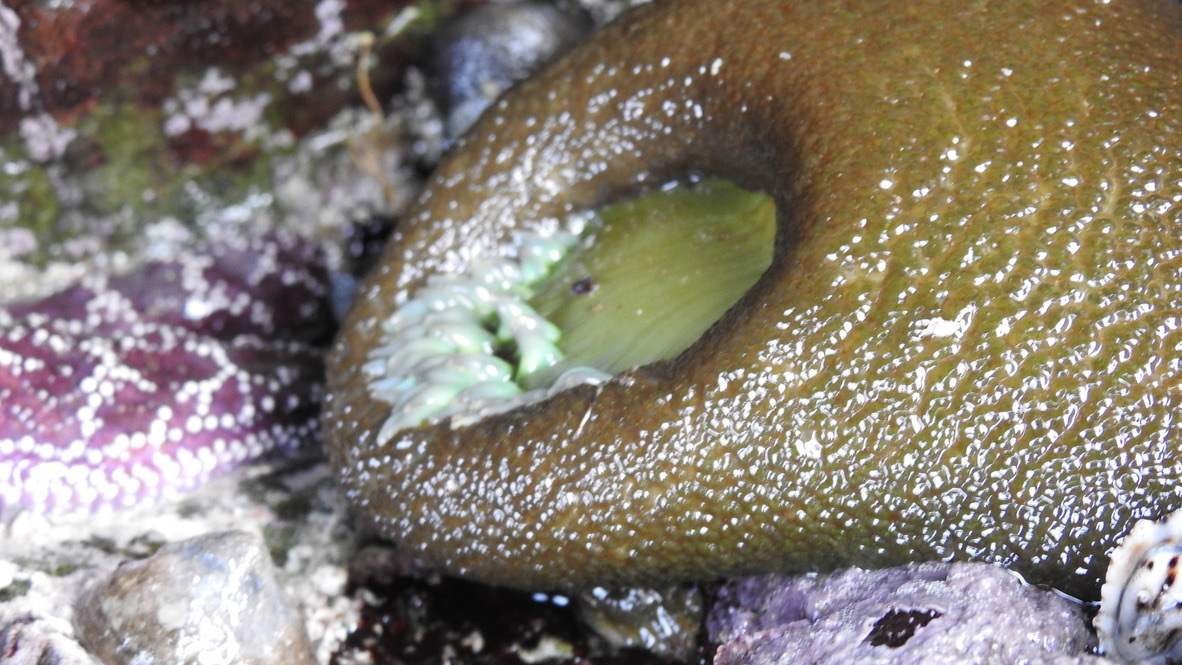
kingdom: Animalia
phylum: Cnidaria
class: Anthozoa
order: Actiniaria
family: Actiniidae
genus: Anthopleura
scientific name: Anthopleura xanthogrammica
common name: Giant green anemone
